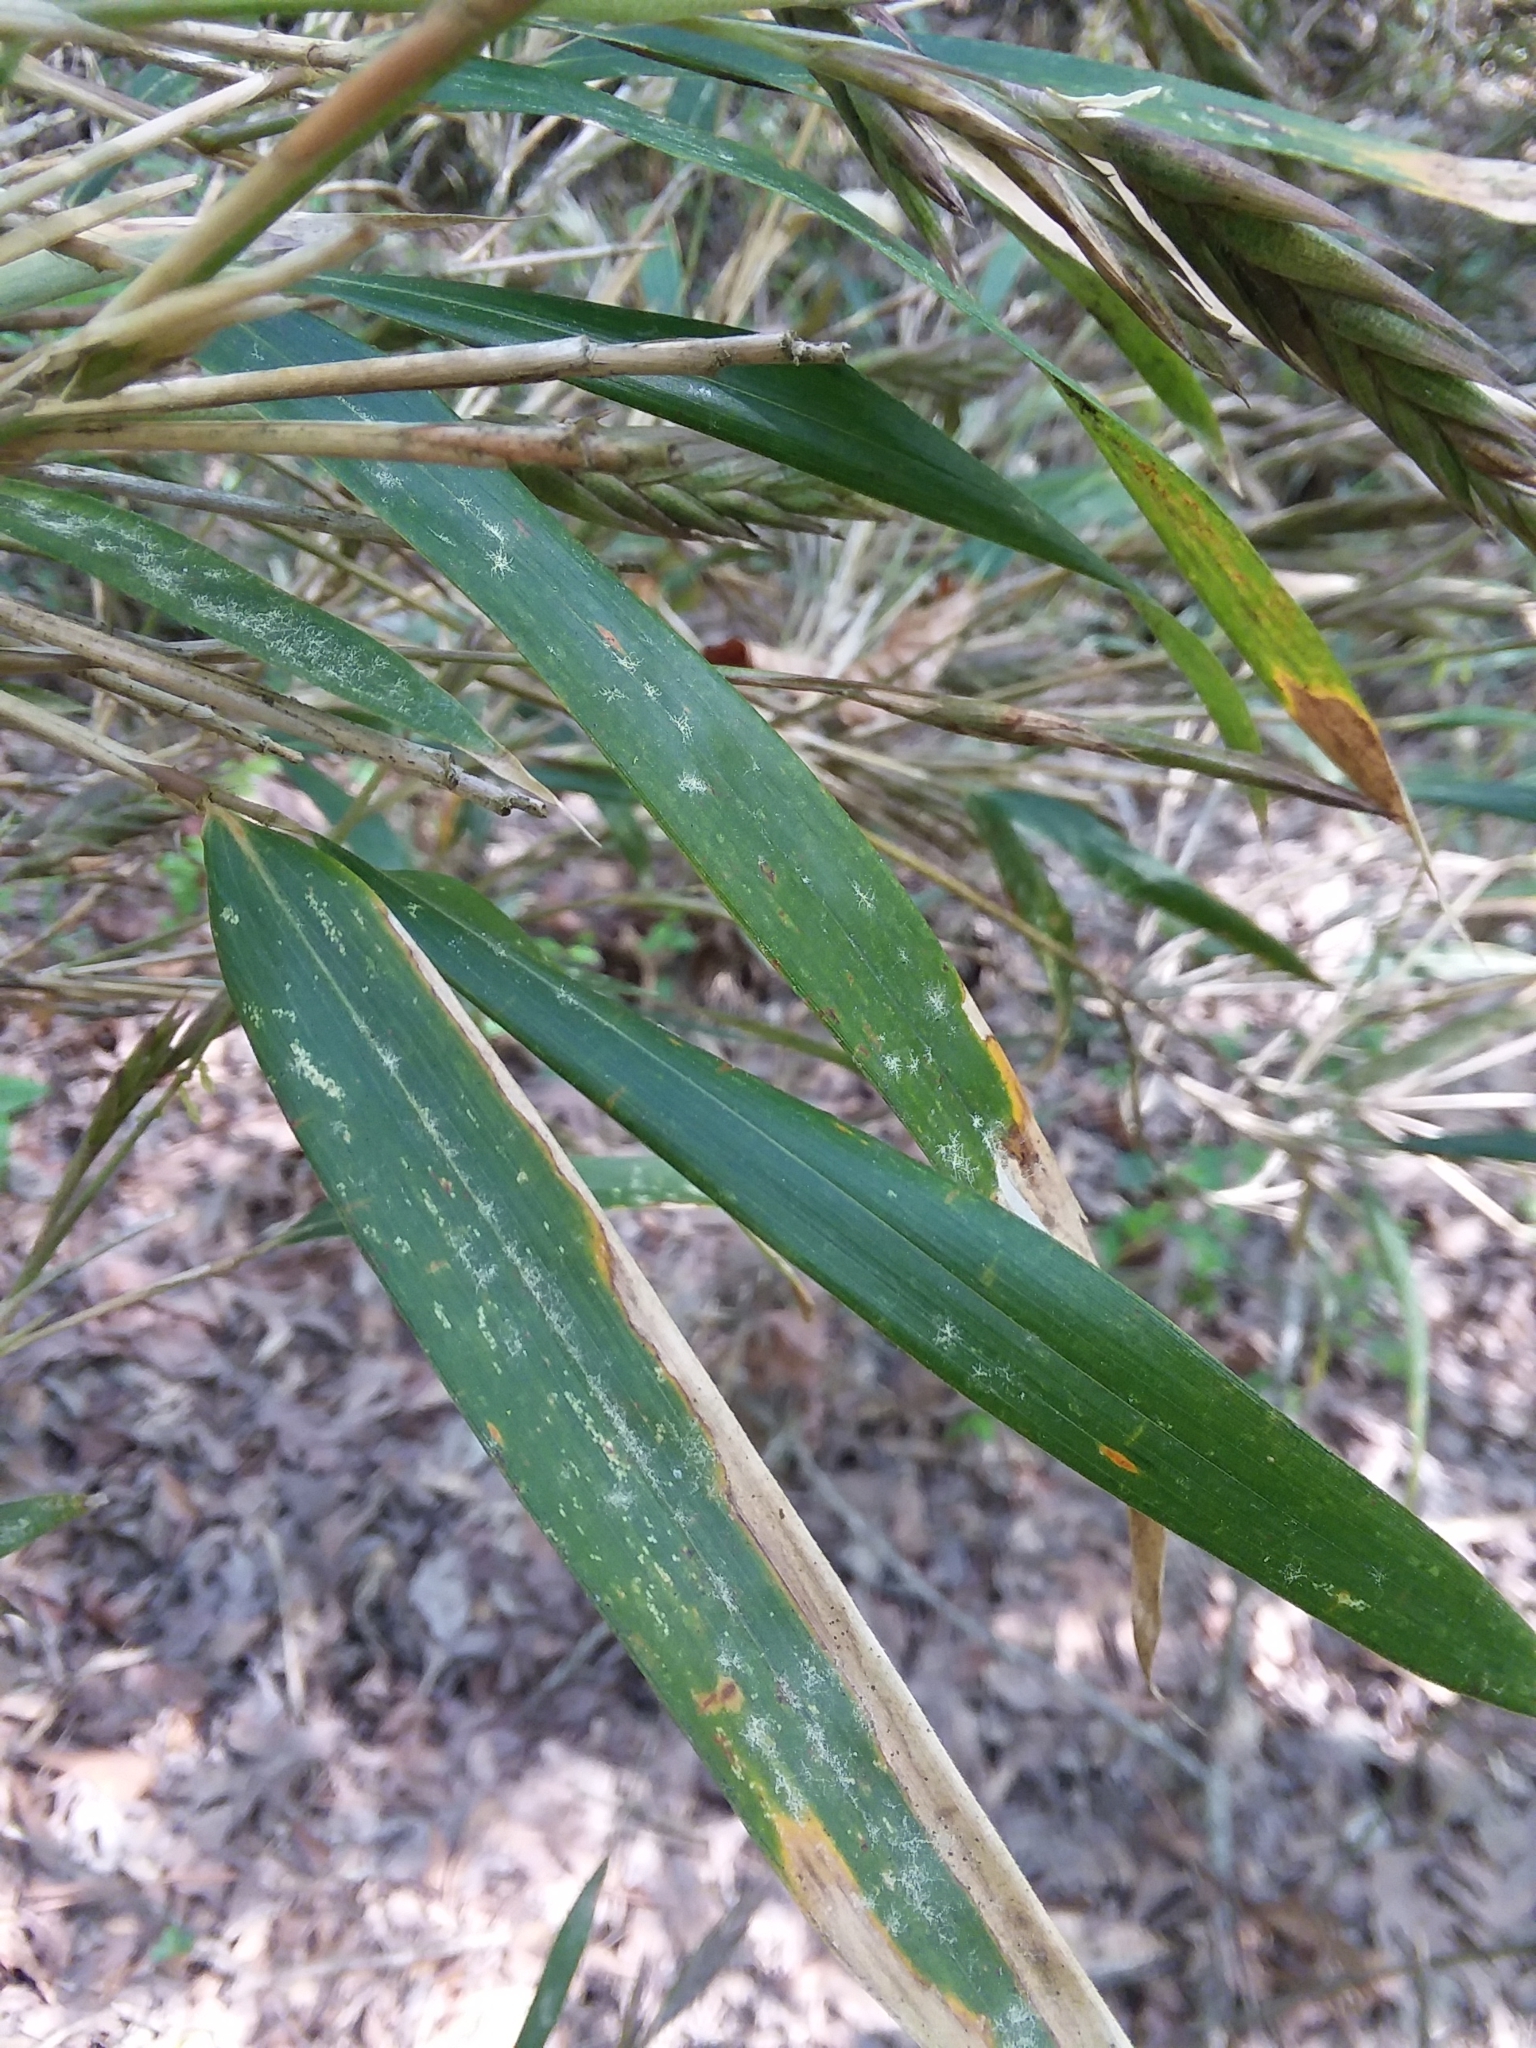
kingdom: Plantae
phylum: Tracheophyta
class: Liliopsida
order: Poales
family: Poaceae
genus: Arundinaria
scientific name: Arundinaria gigantea
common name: Giant cane
